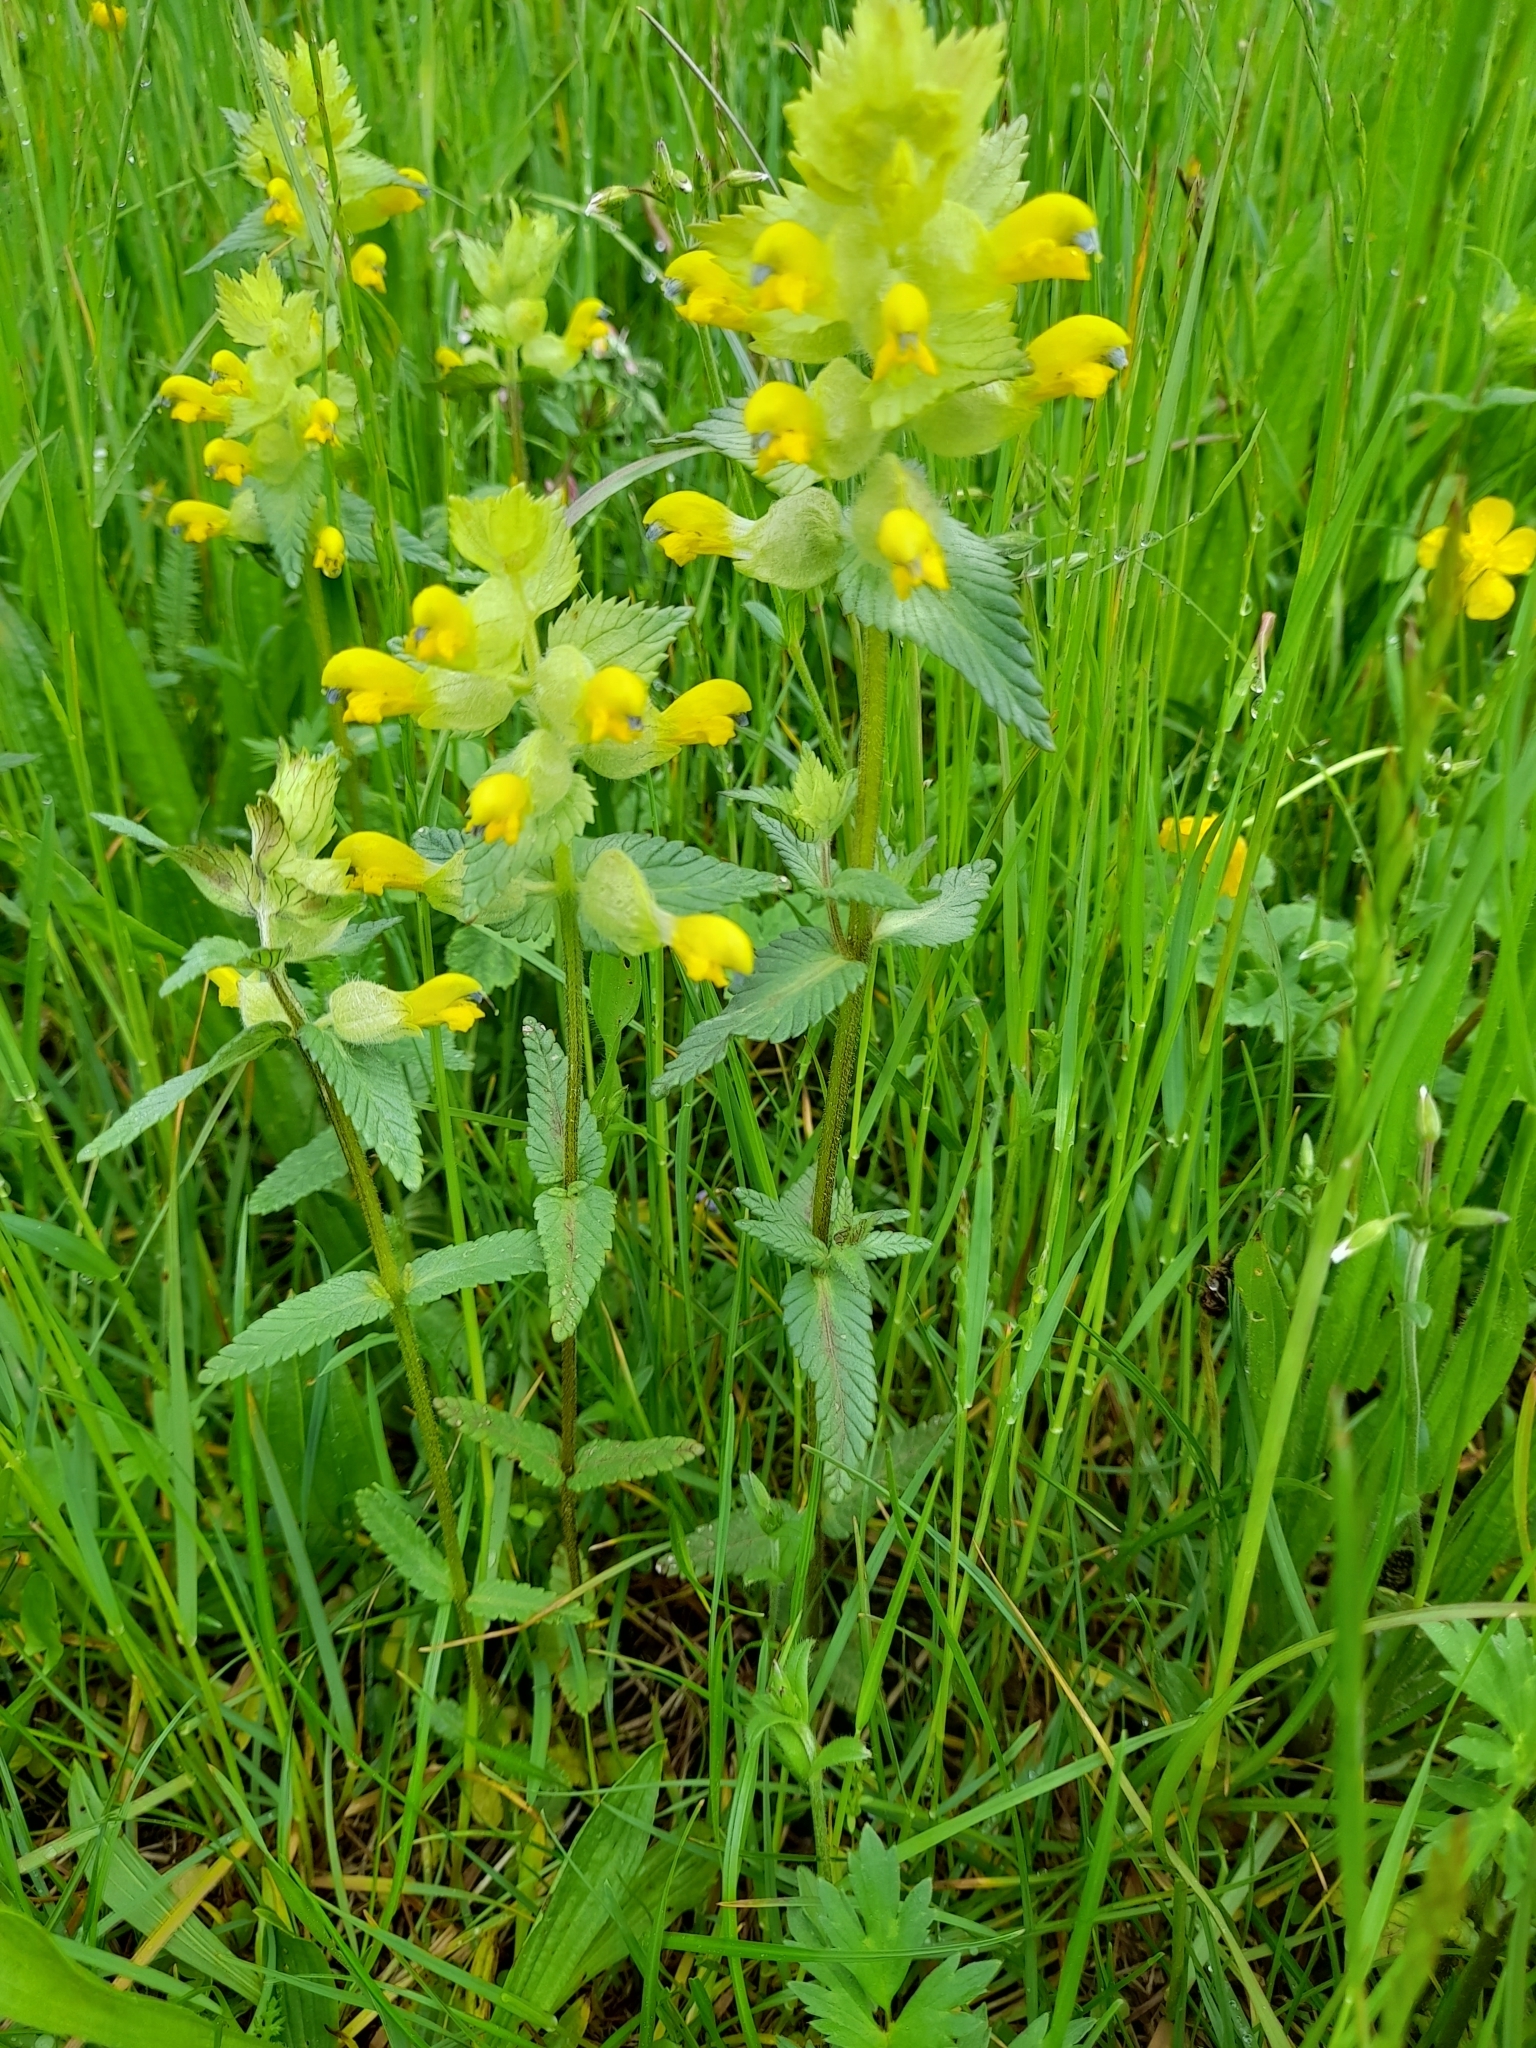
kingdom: Plantae
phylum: Tracheophyta
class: Magnoliopsida
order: Lamiales
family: Orobanchaceae
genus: Rhinanthus
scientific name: Rhinanthus alectorolophus
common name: Greater yellow-rattle
